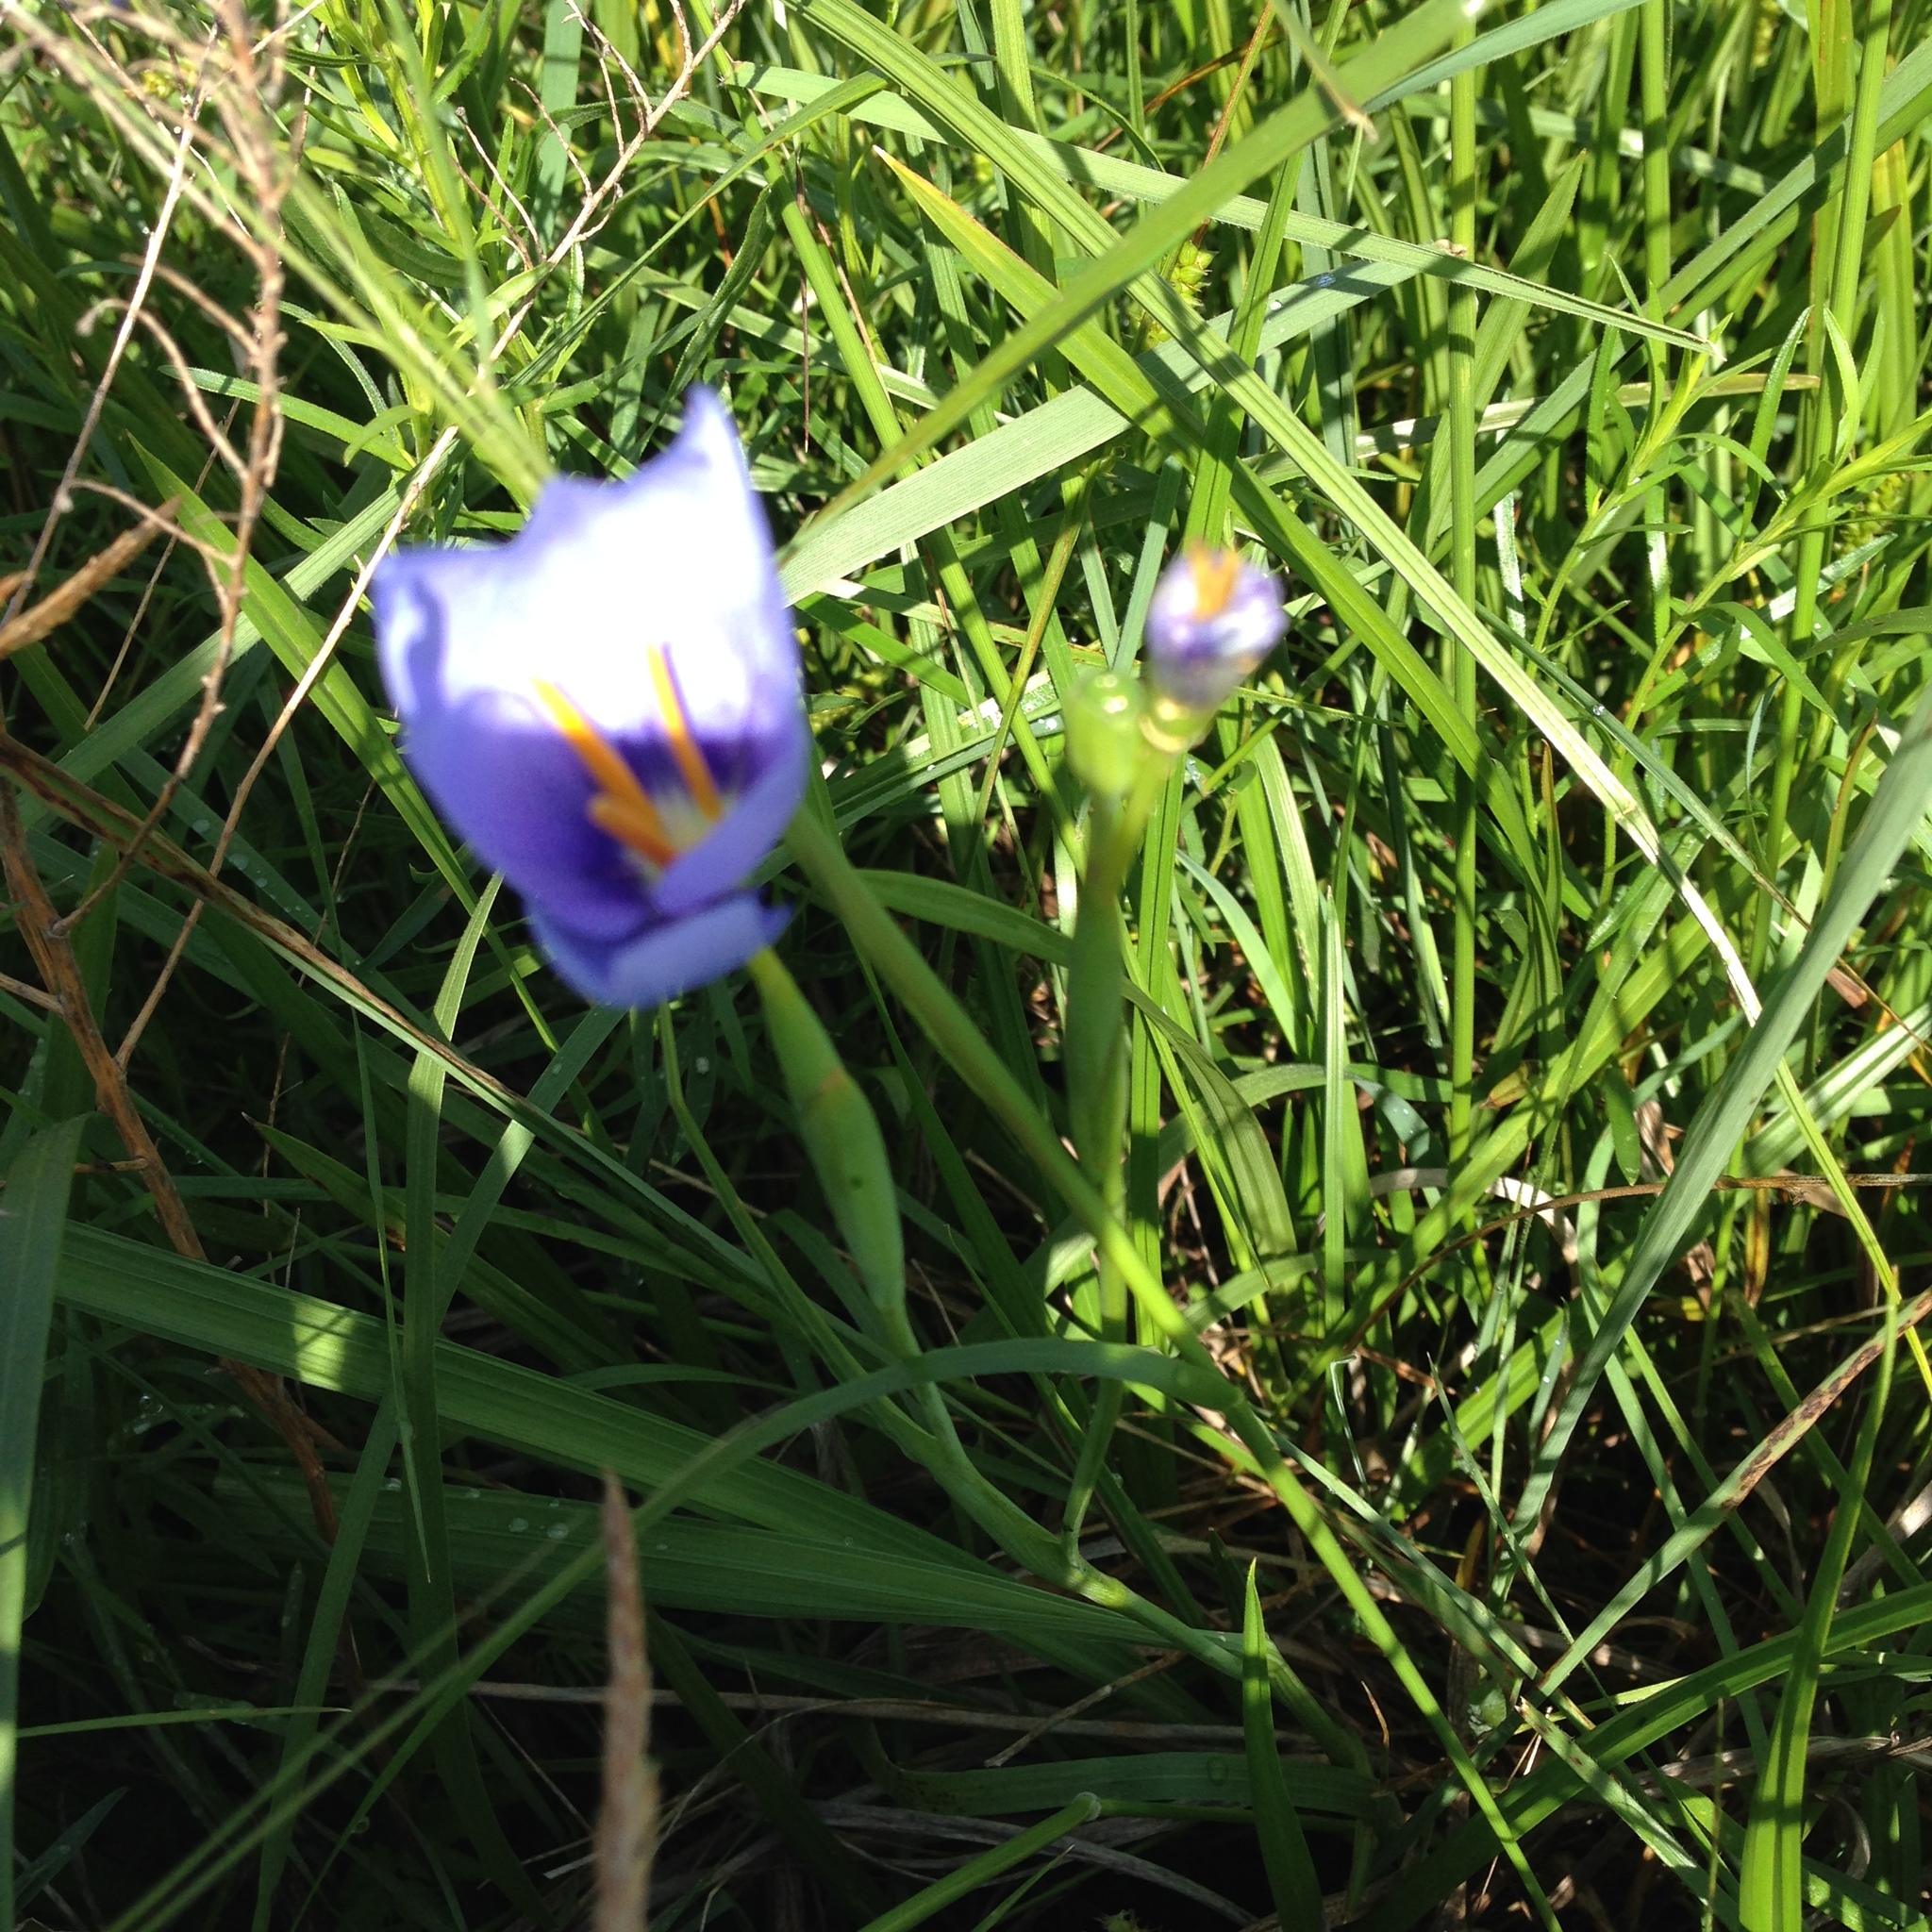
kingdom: Plantae
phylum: Tracheophyta
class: Liliopsida
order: Asparagales
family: Iridaceae
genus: Nemastylis
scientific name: Nemastylis geminiflora
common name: Prairie celestial
